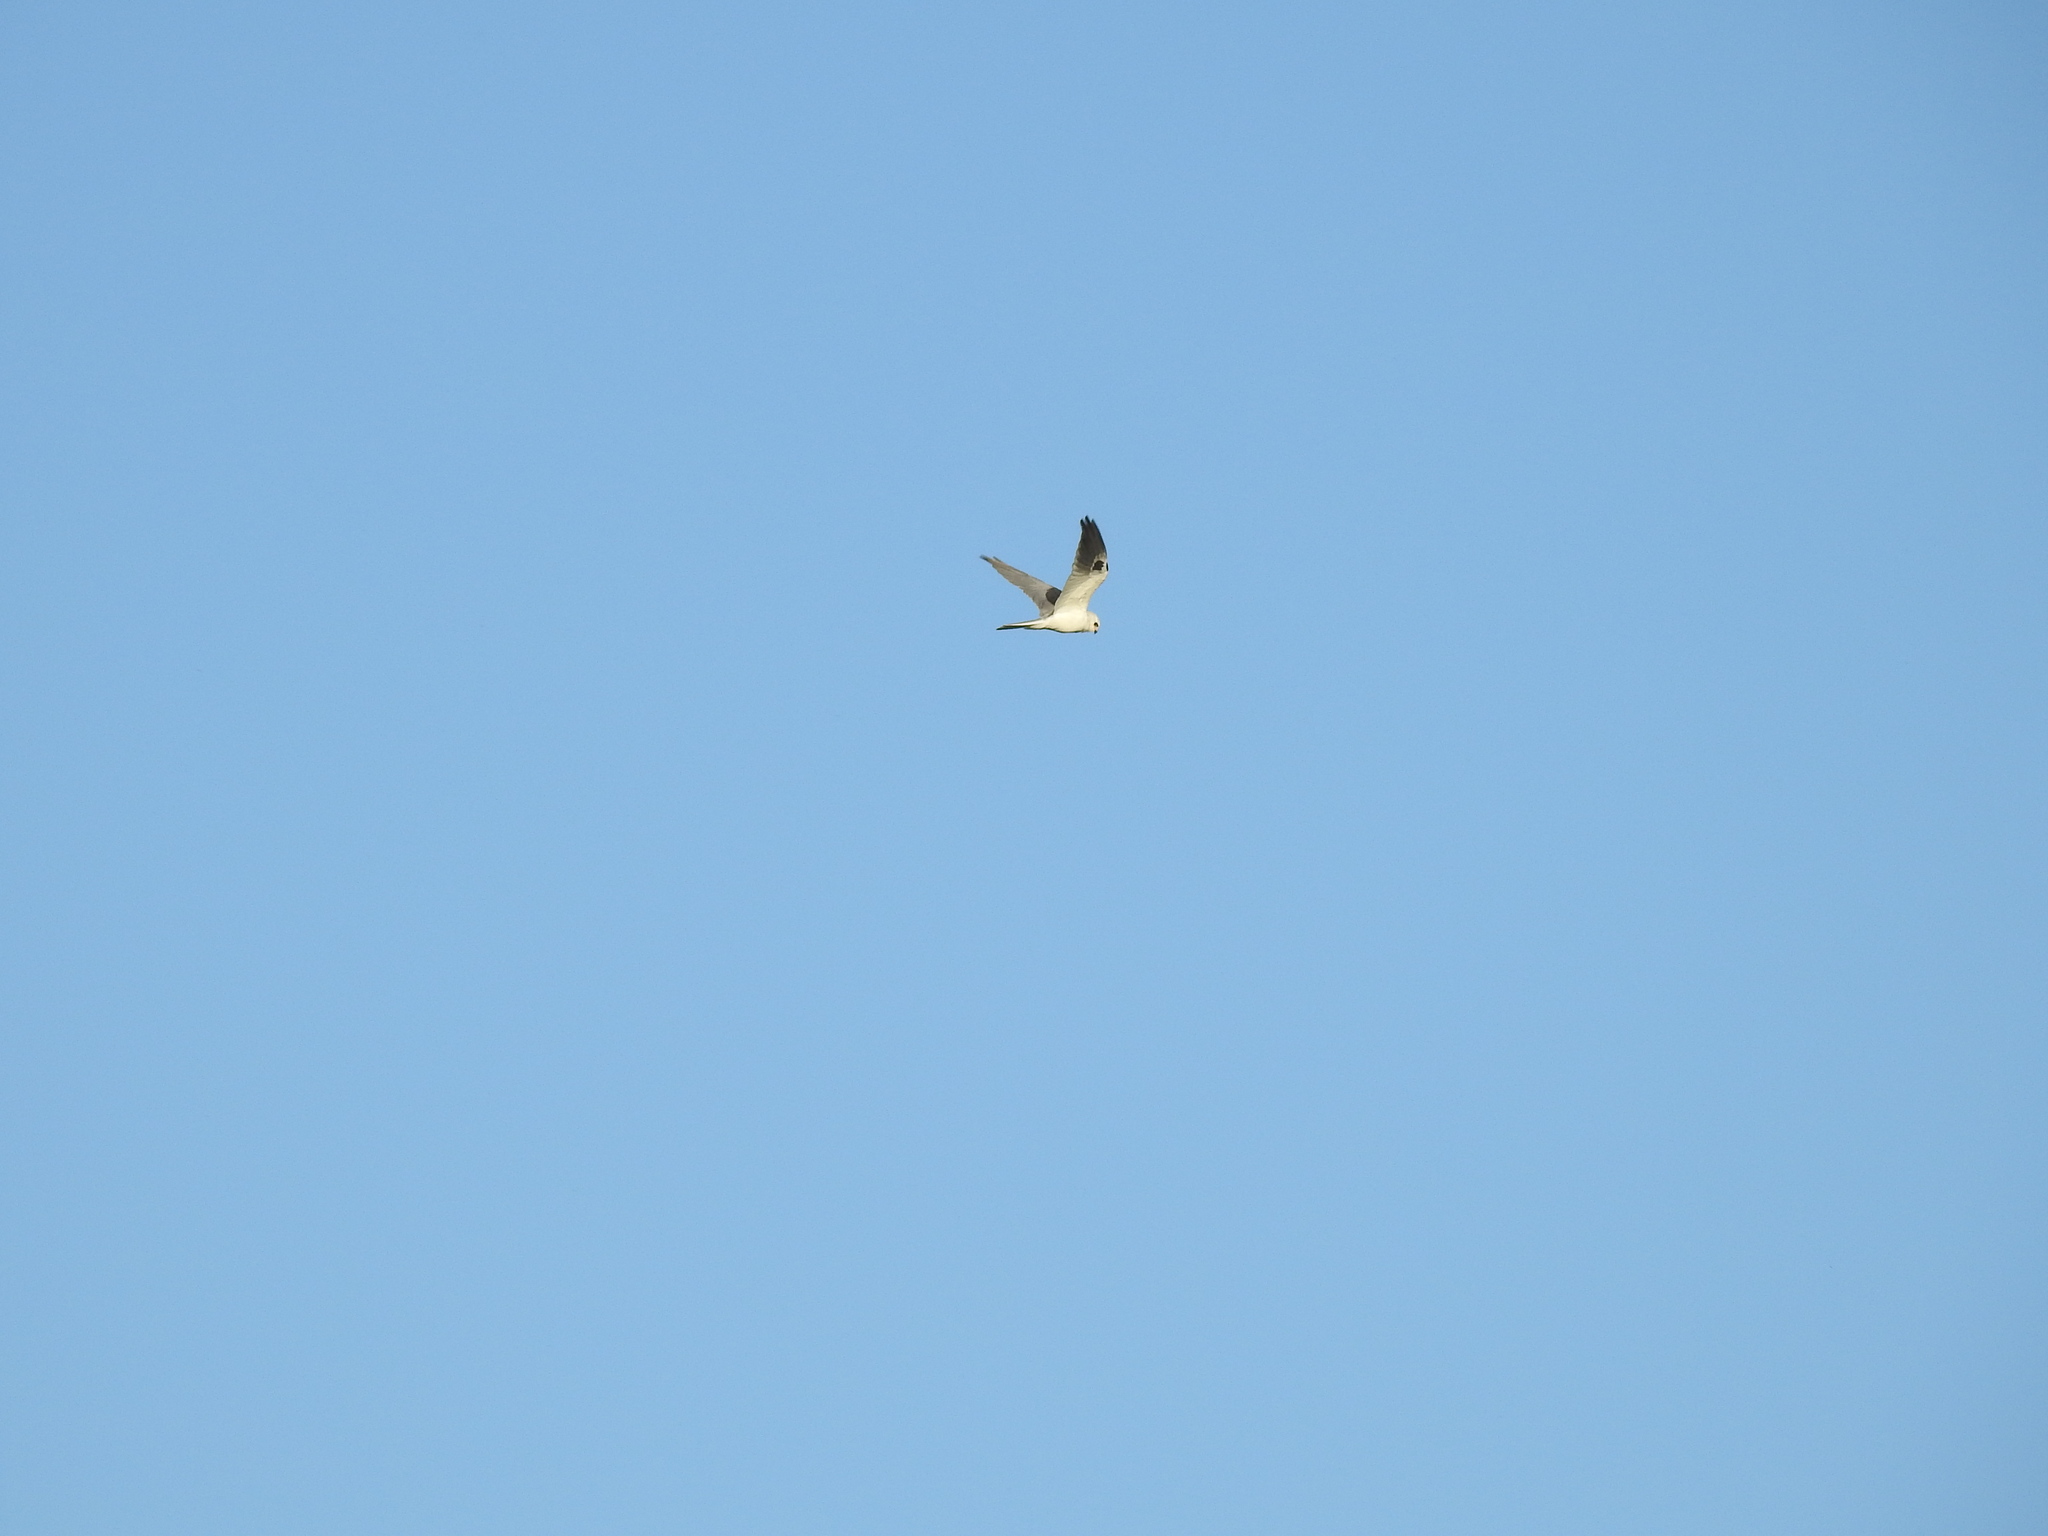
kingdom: Animalia
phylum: Chordata
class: Aves
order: Accipitriformes
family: Accipitridae
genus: Elanus
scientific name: Elanus leucurus
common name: White-tailed kite
